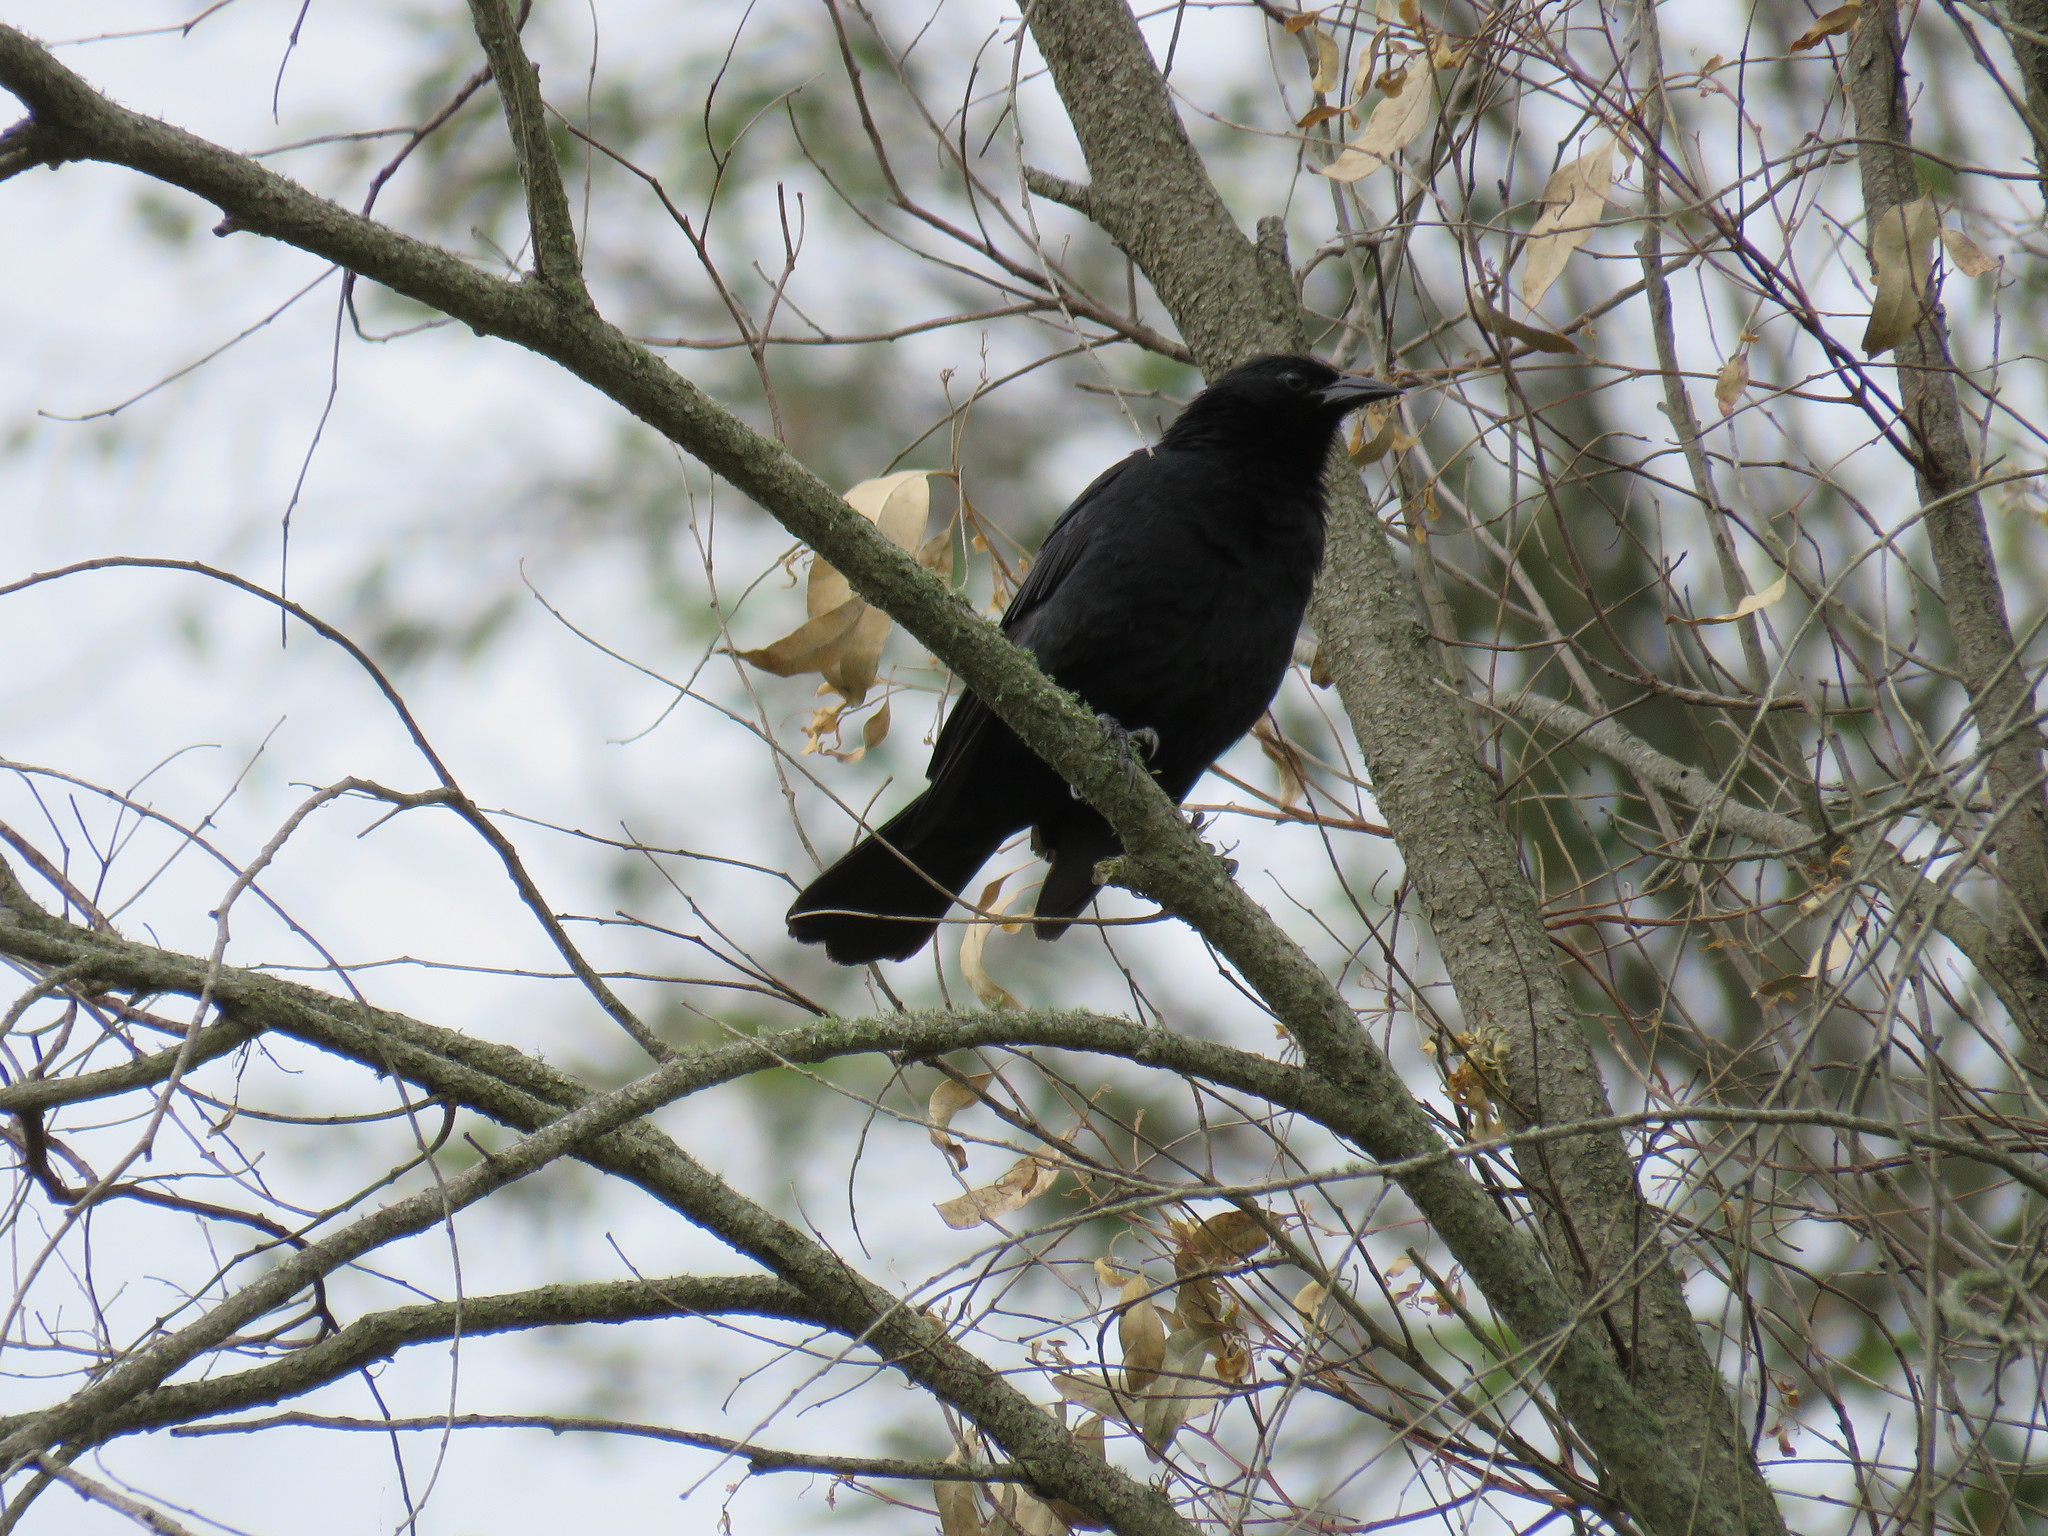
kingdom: Animalia
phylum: Chordata
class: Aves
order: Passeriformes
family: Icteridae
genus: Gnorimopsar
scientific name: Gnorimopsar chopi
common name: Chopi blackbird
